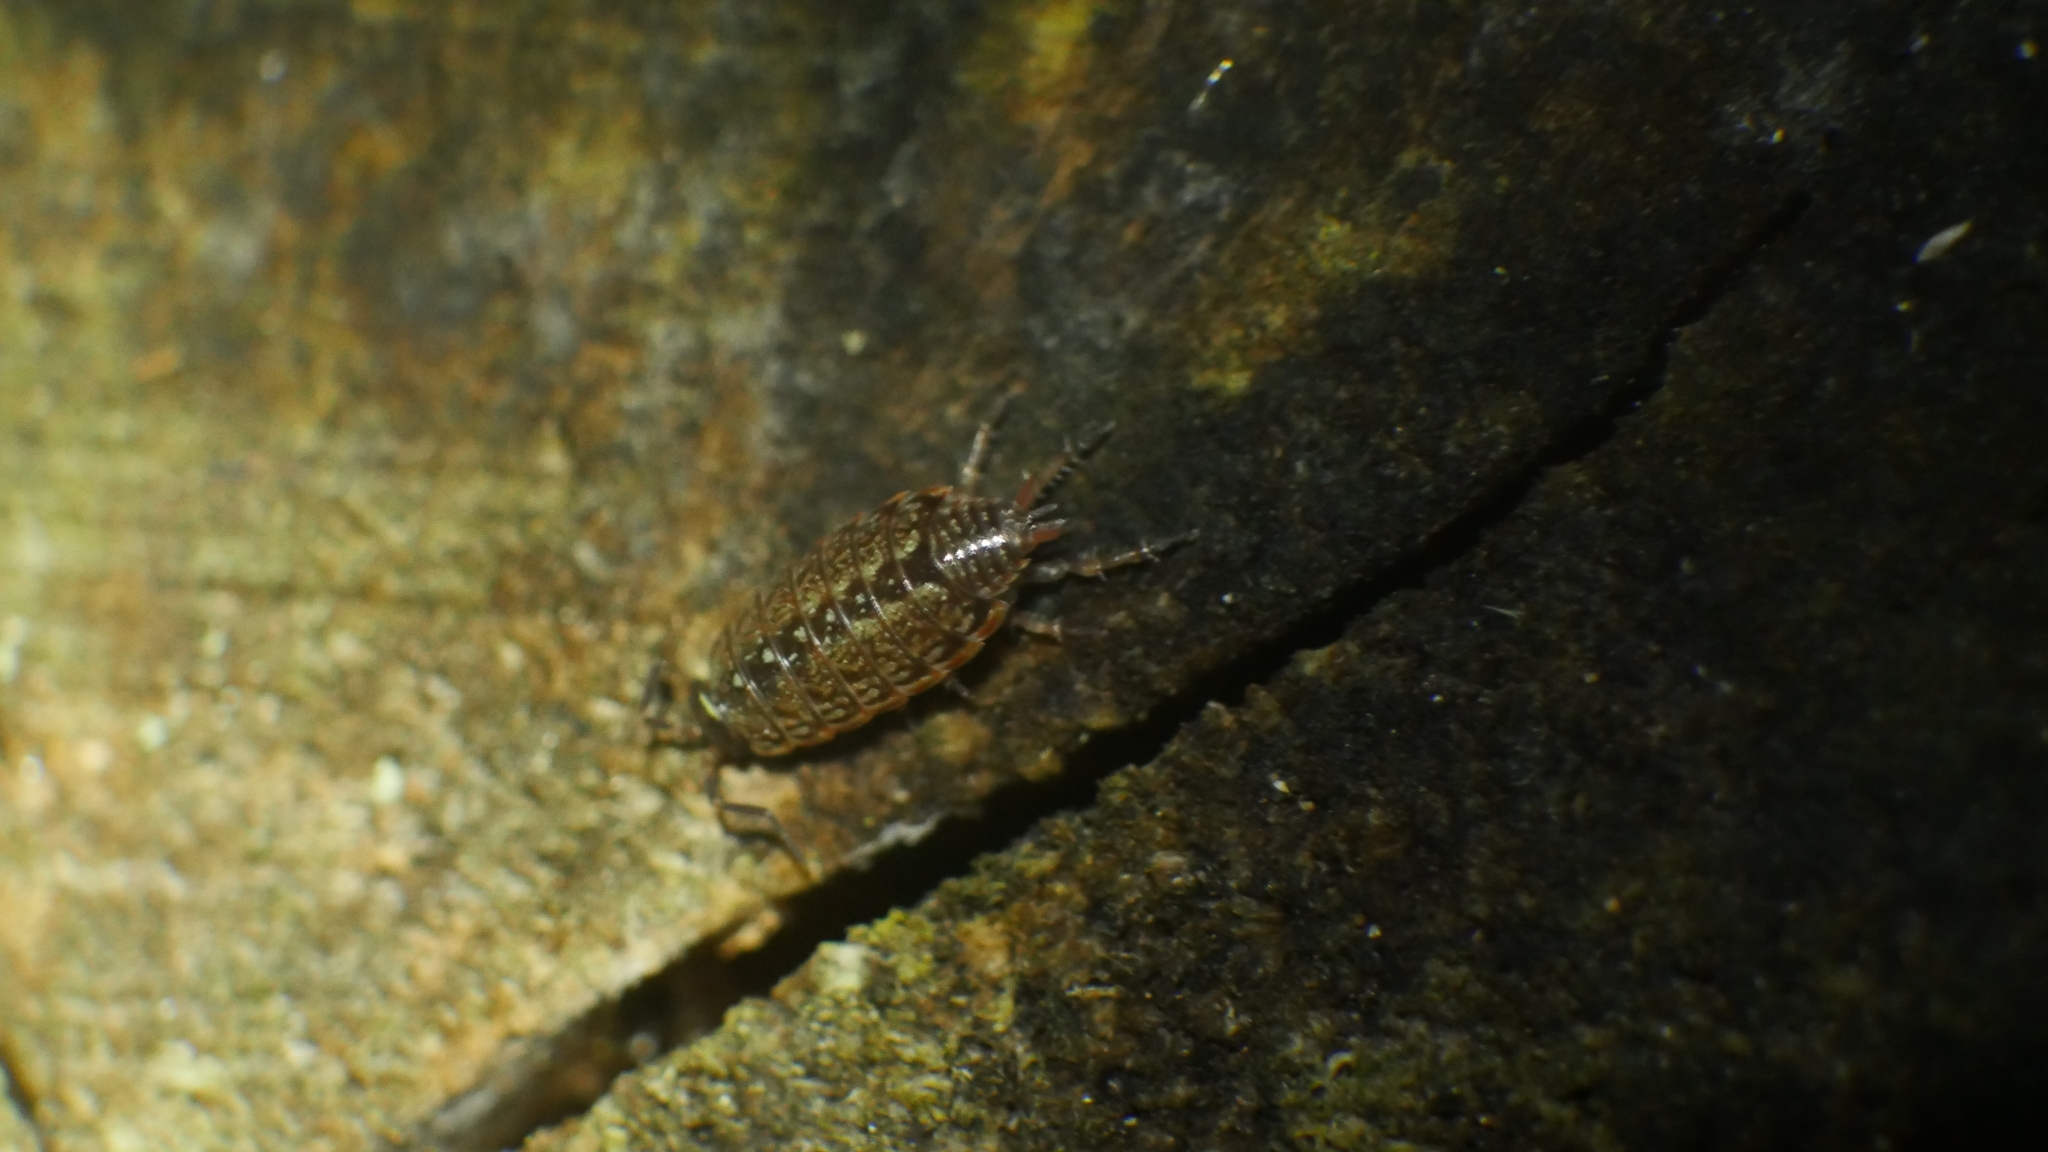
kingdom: Animalia
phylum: Arthropoda
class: Malacostraca
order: Isopoda
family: Philosciidae
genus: Philoscia
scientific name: Philoscia muscorum
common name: Common striped woodlouse
